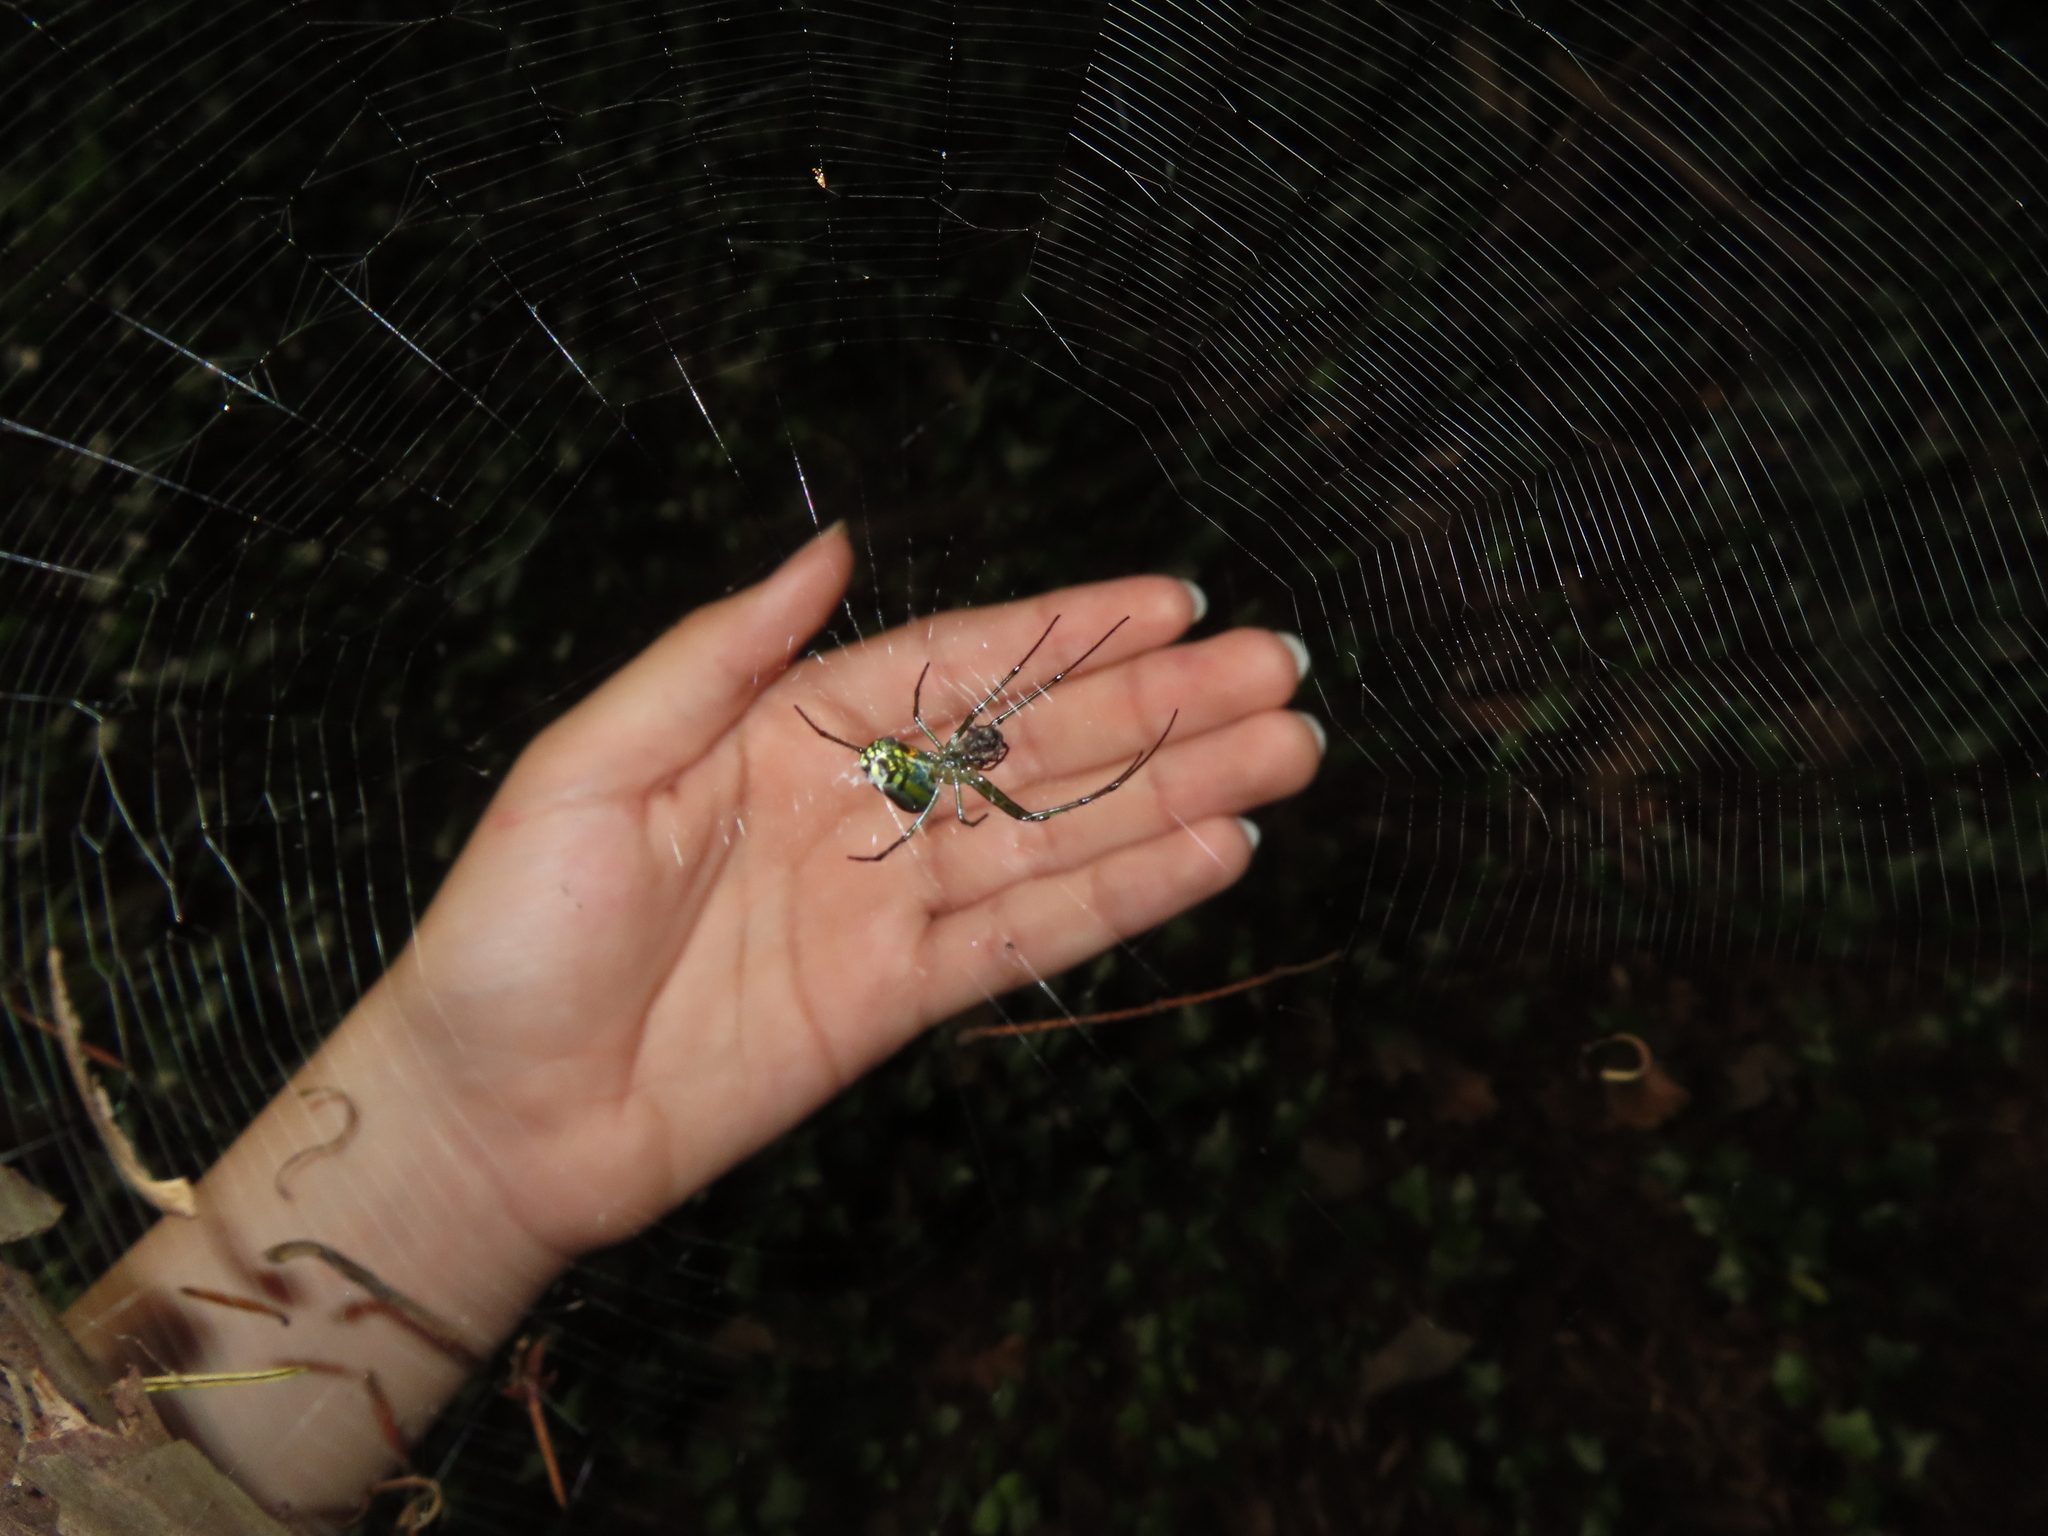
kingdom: Animalia
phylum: Arthropoda
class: Arachnida
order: Araneae
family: Tetragnathidae
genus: Leucauge
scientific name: Leucauge venusta
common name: Longjawed orb weavers
